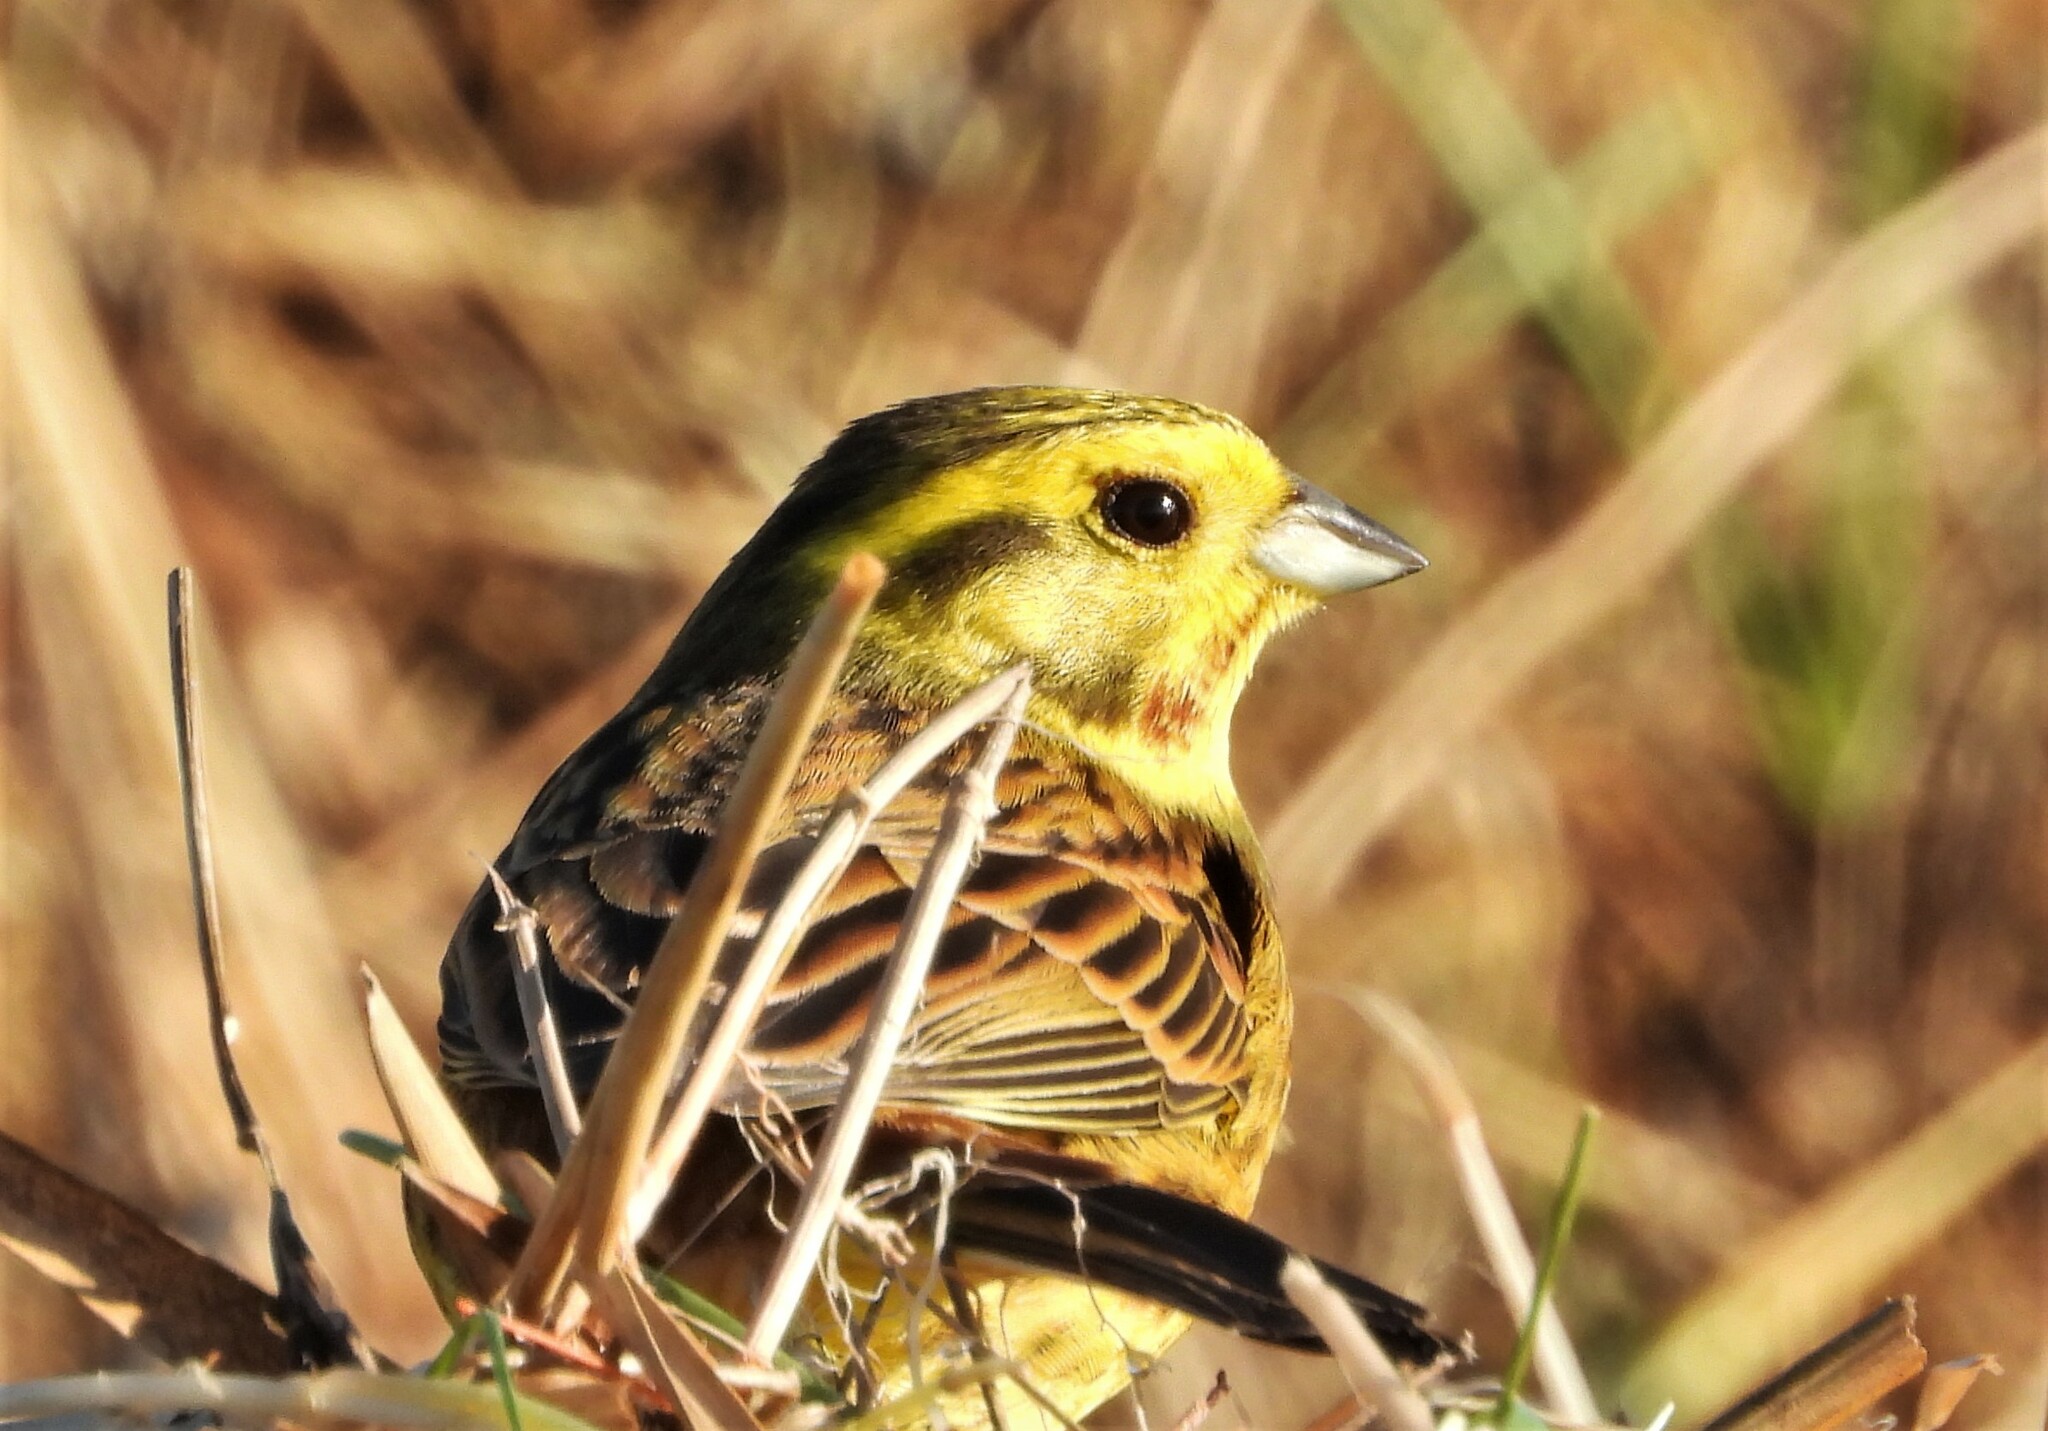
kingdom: Animalia
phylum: Chordata
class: Aves
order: Passeriformes
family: Emberizidae
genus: Emberiza
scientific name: Emberiza citrinella
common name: Yellowhammer
